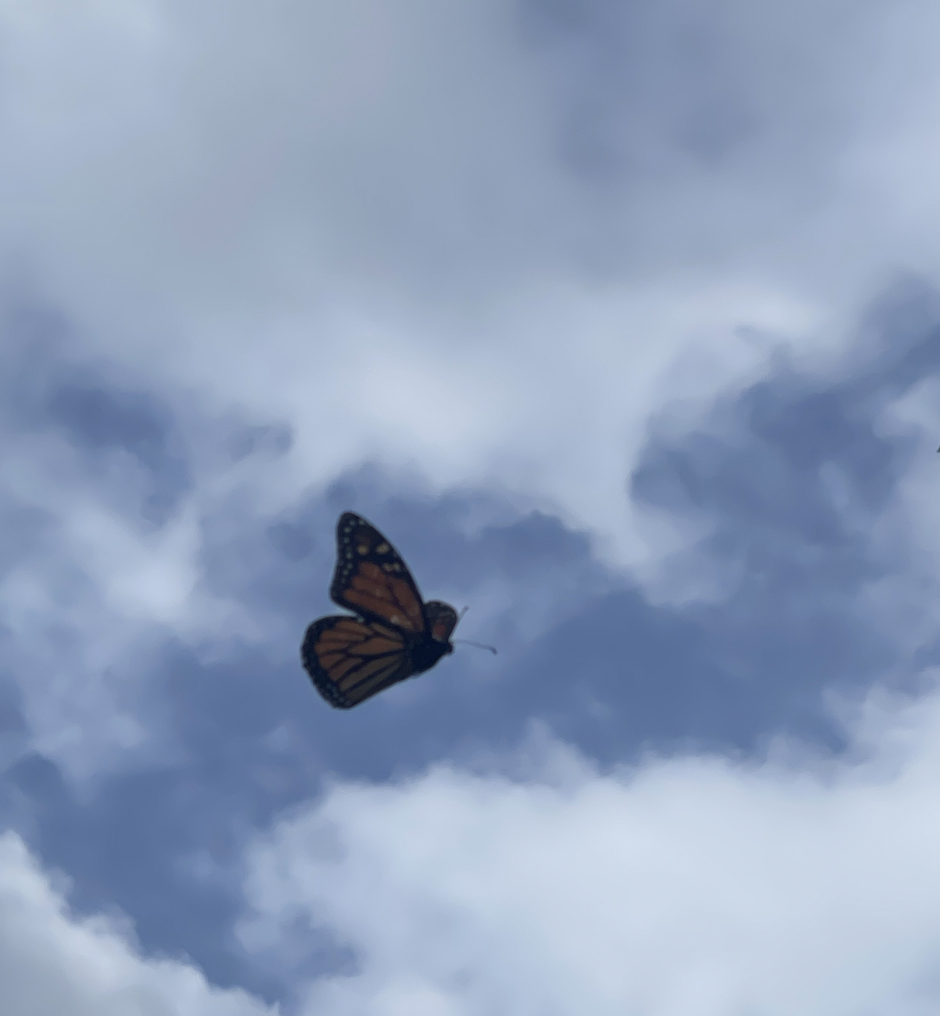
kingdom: Animalia
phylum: Arthropoda
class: Insecta
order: Lepidoptera
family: Nymphalidae
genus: Danaus
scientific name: Danaus plexippus
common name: Monarch
